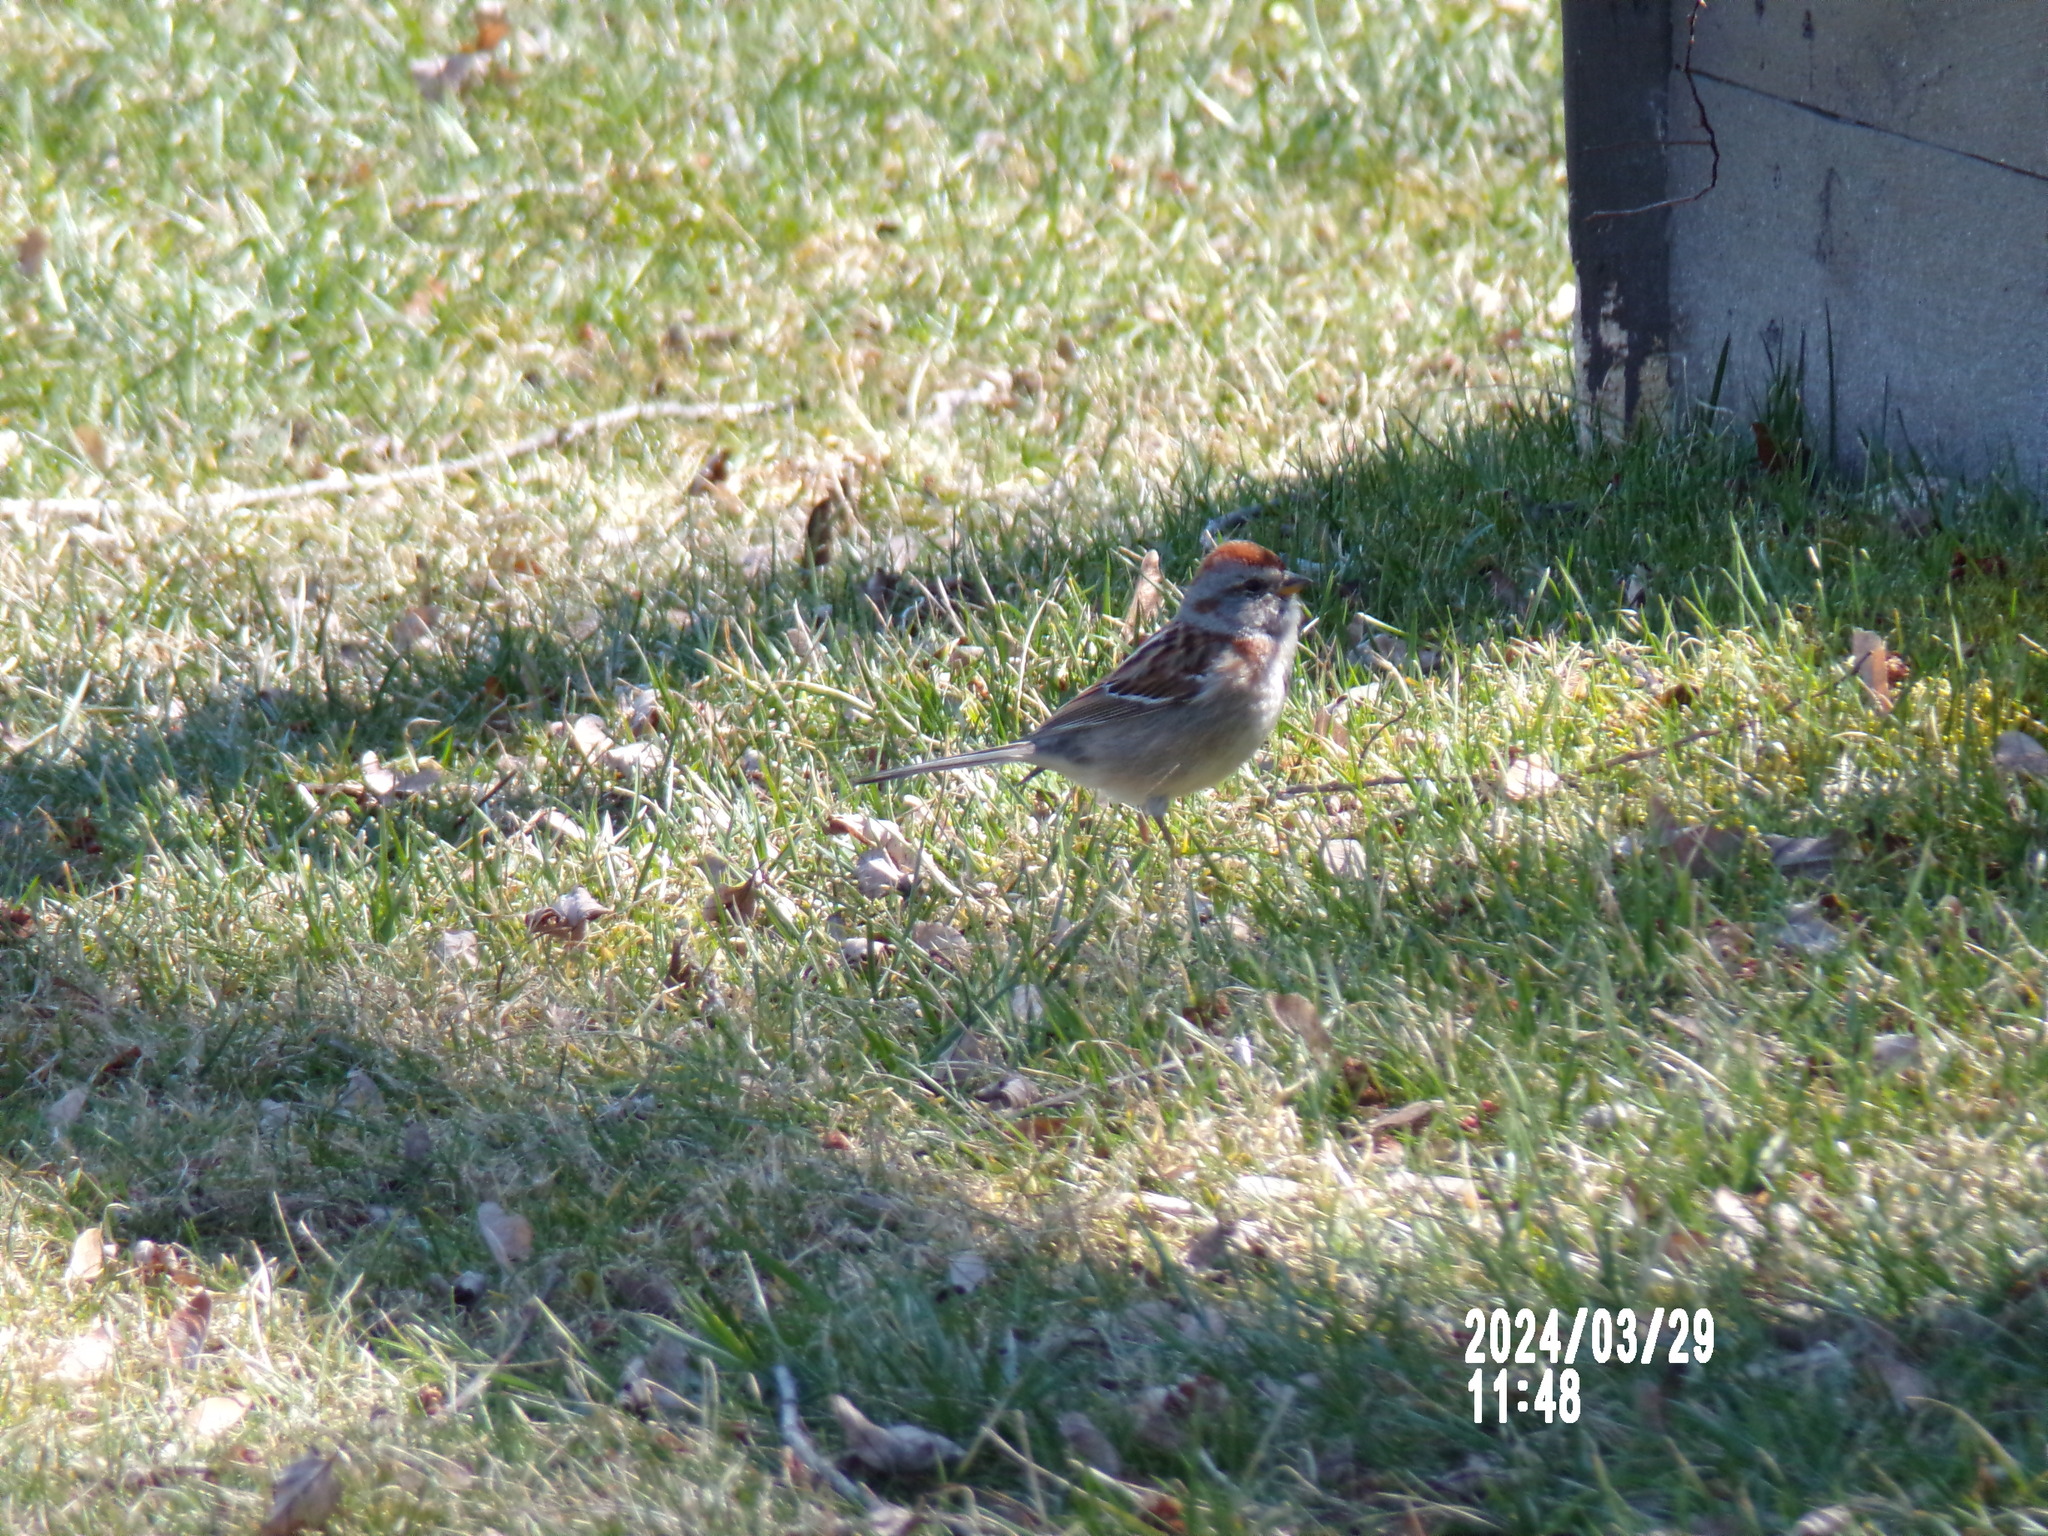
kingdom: Animalia
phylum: Chordata
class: Aves
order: Passeriformes
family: Passerellidae
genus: Spizelloides
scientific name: Spizelloides arborea
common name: American tree sparrow
